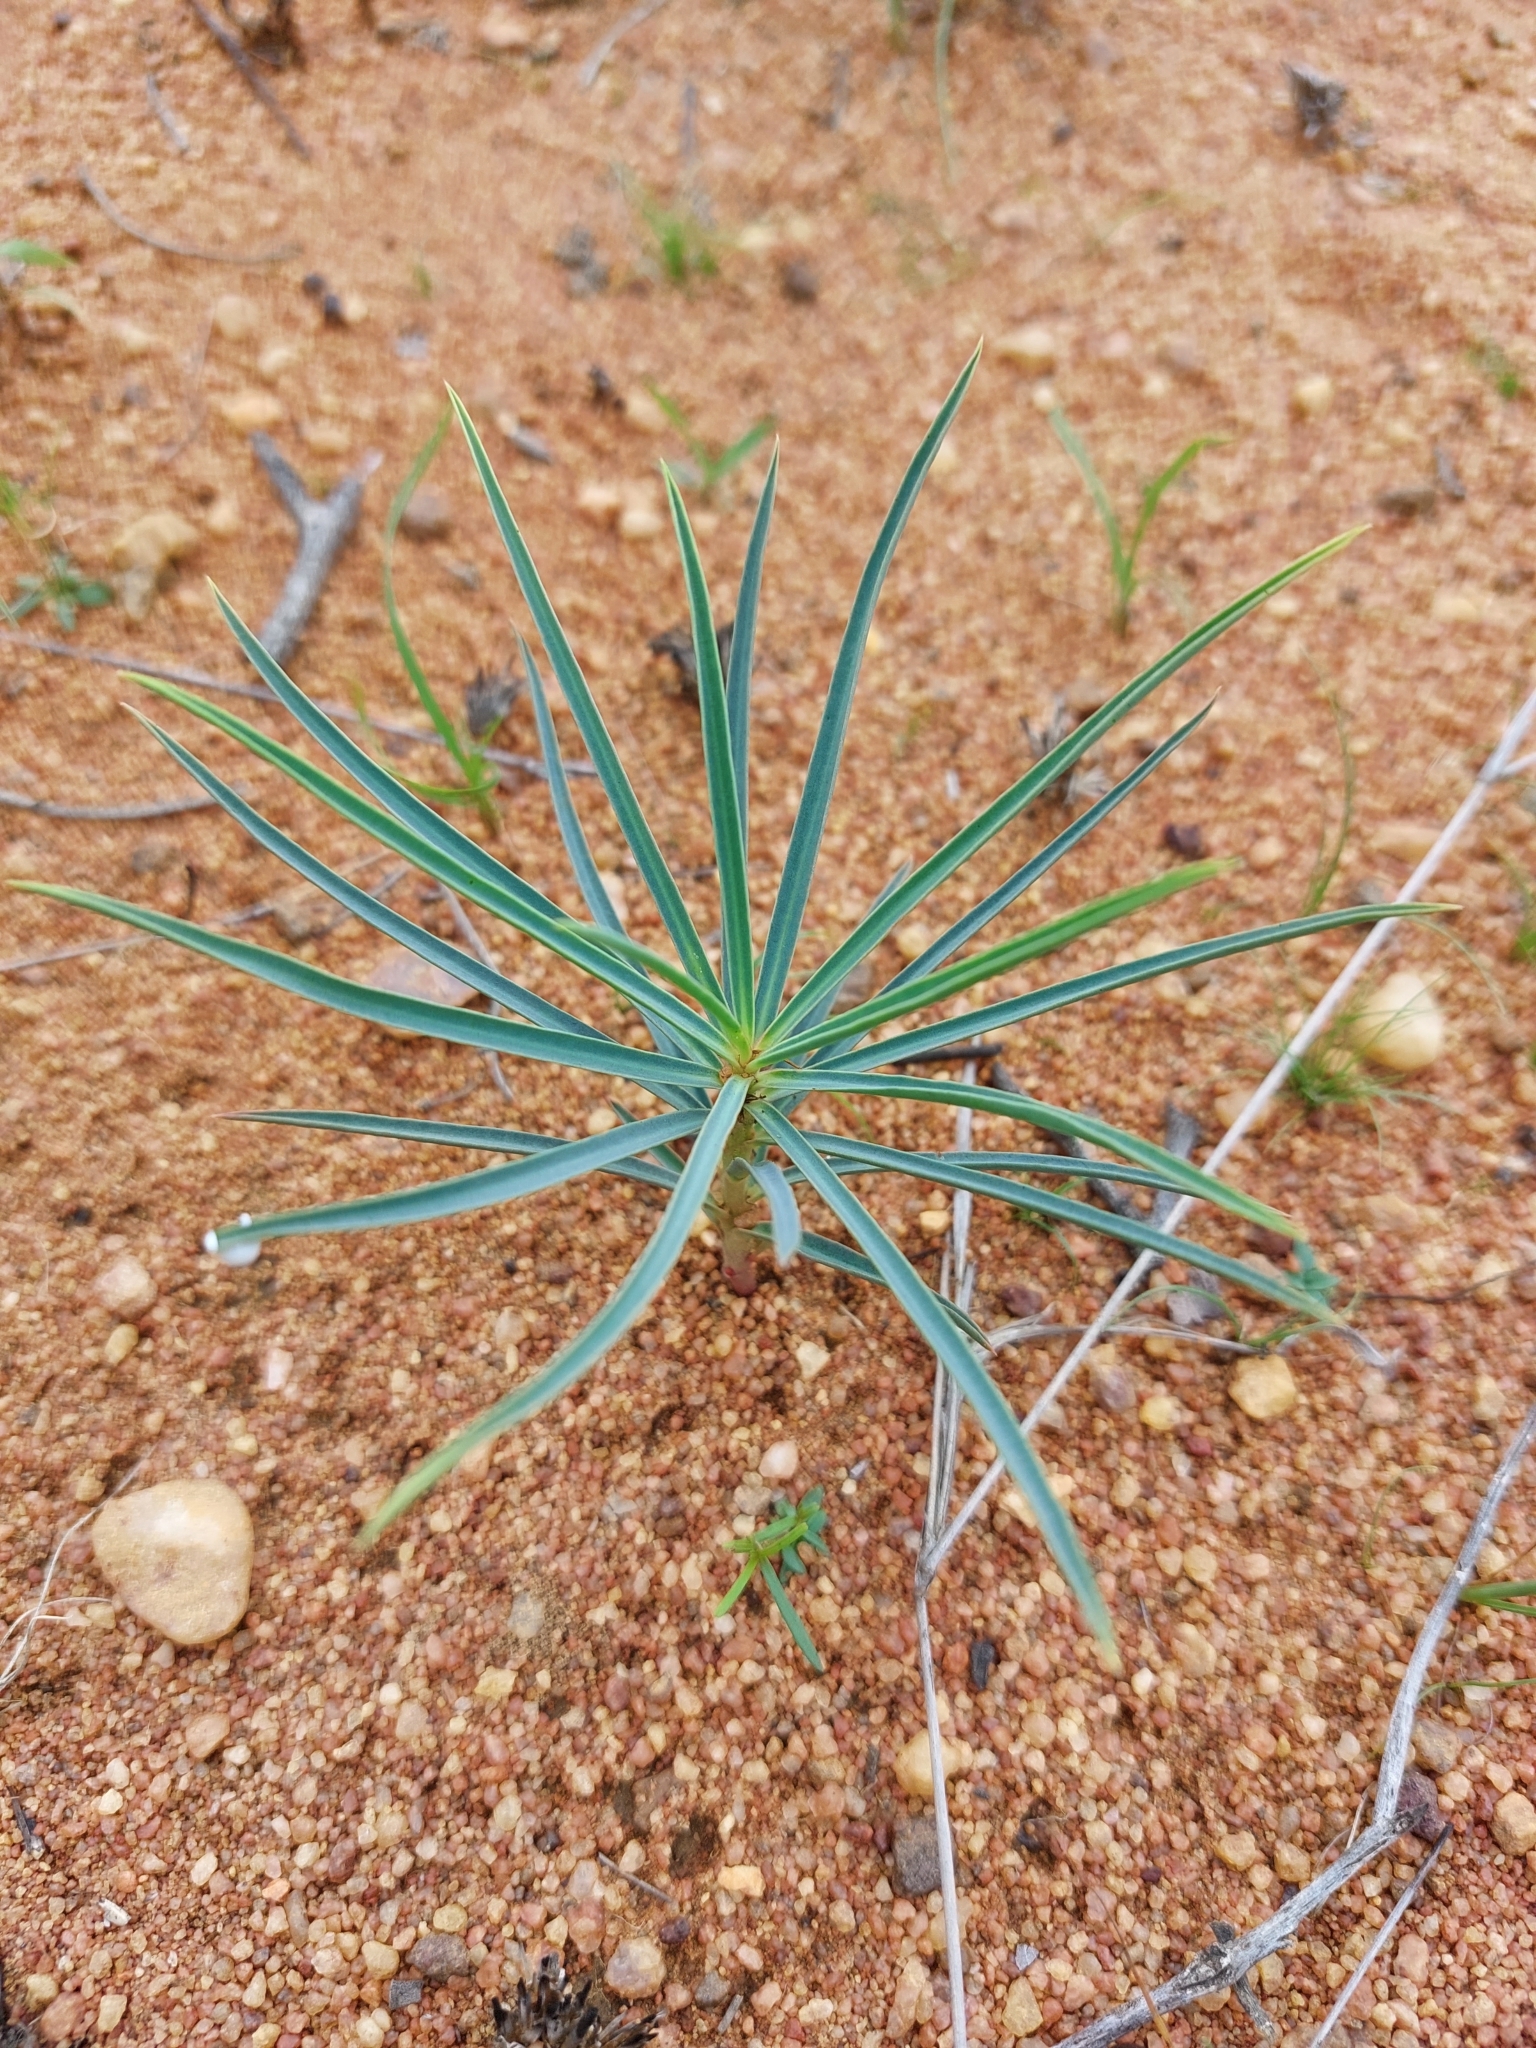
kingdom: Plantae
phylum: Tracheophyta
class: Magnoliopsida
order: Malpighiales
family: Euphorbiaceae
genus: Euphorbia
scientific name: Euphorbia trichadenia
